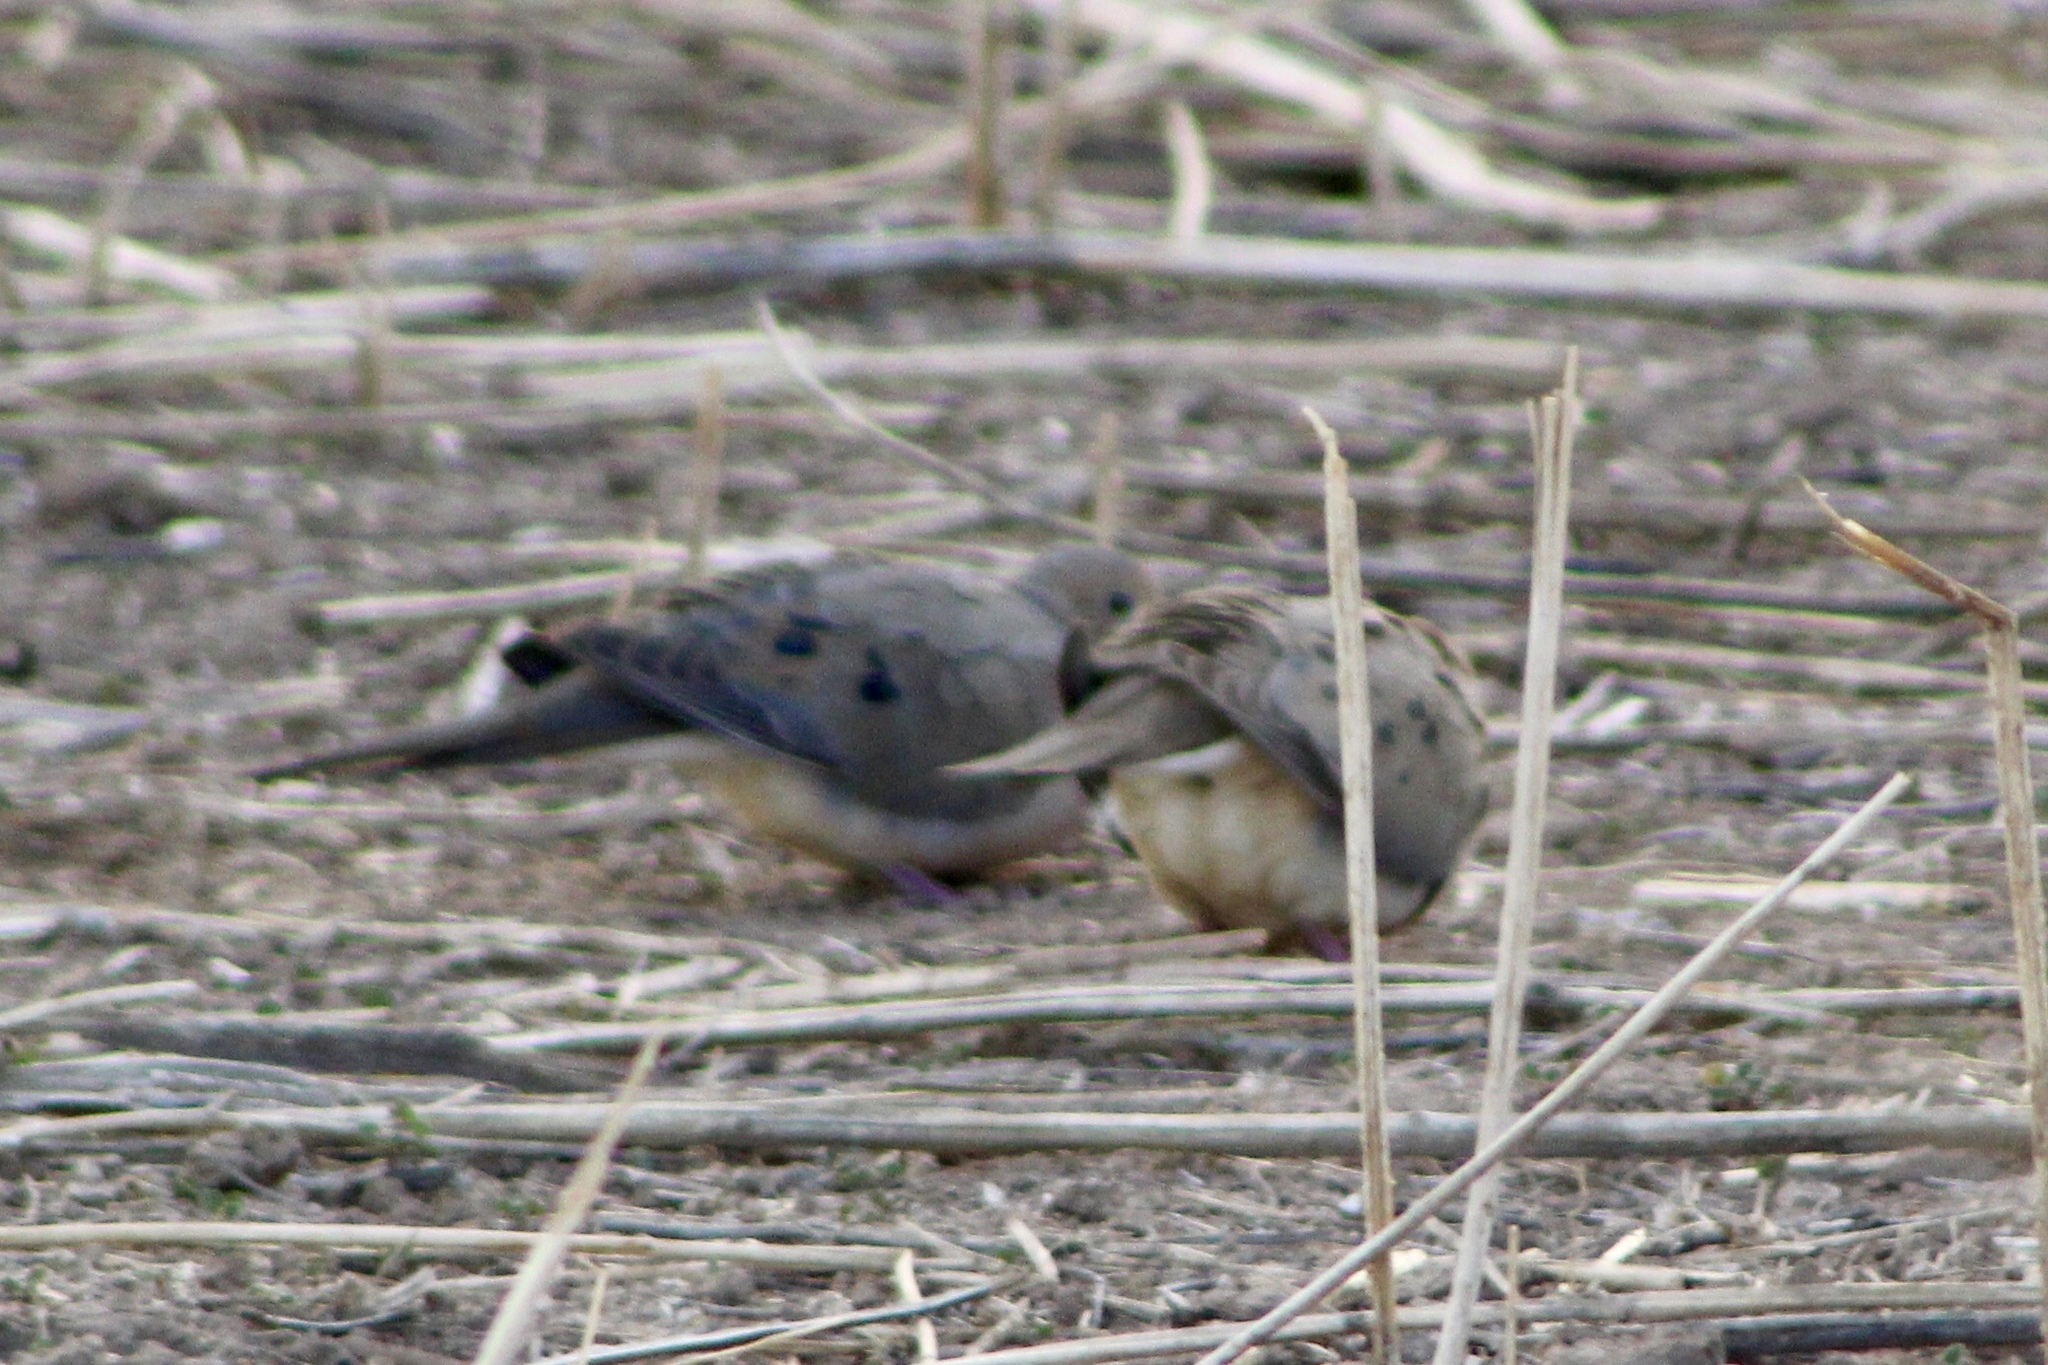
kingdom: Animalia
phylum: Chordata
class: Aves
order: Columbiformes
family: Columbidae
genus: Zenaida
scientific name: Zenaida macroura
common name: Mourning dove
